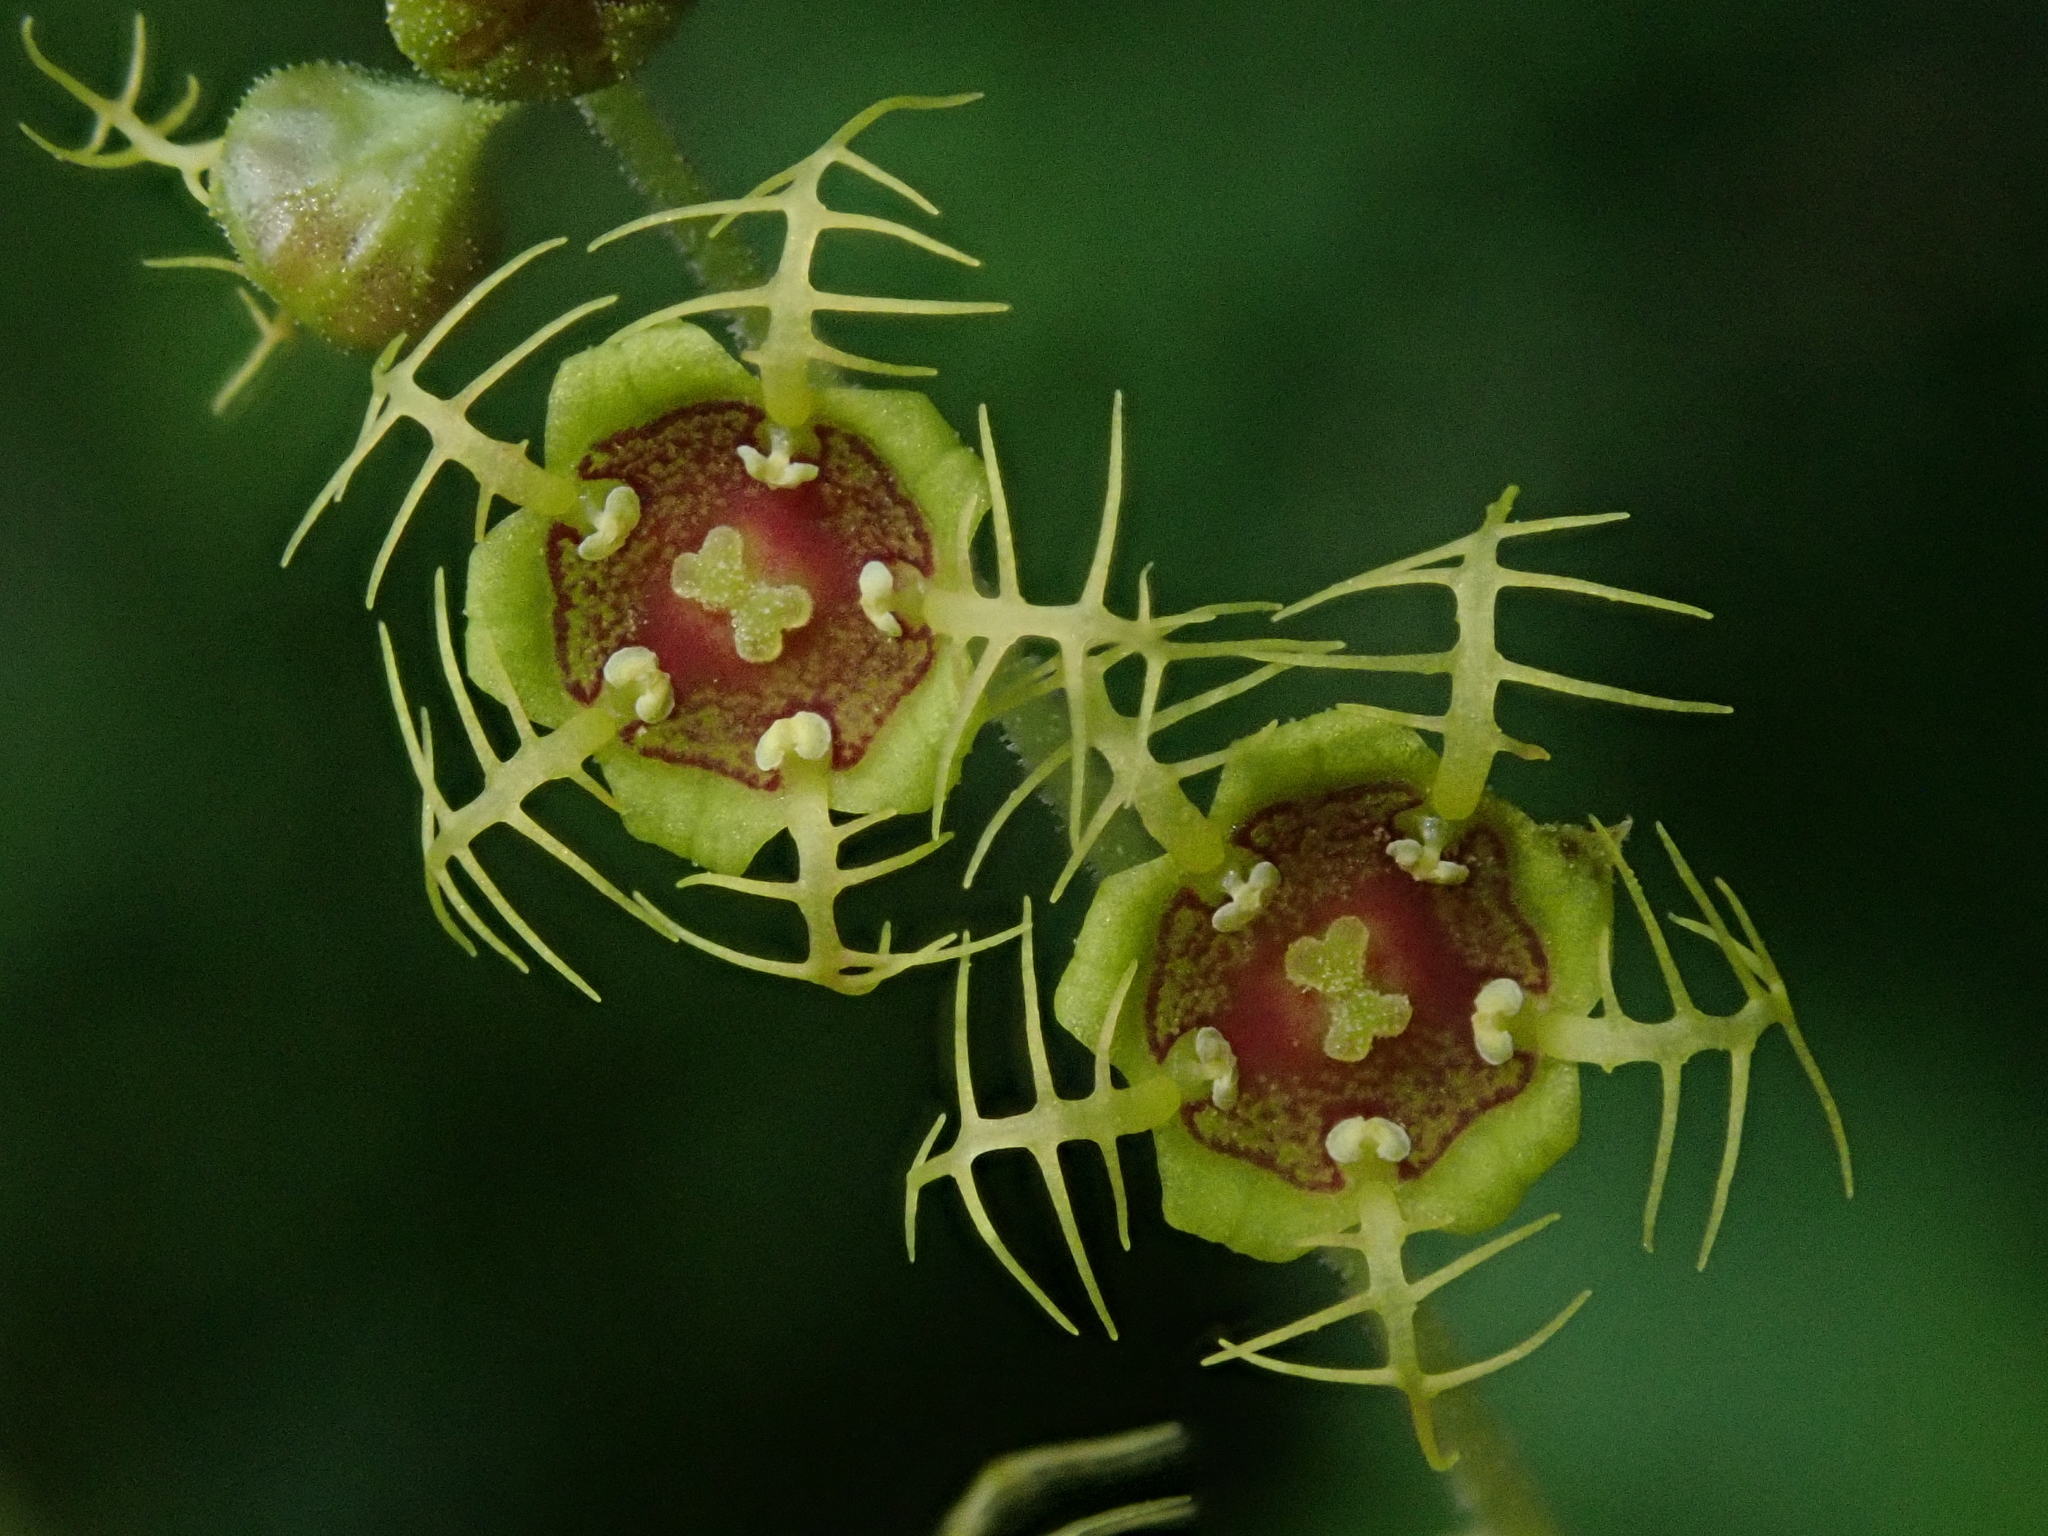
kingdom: Plantae
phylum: Tracheophyta
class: Magnoliopsida
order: Saxifragales
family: Saxifragaceae
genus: Pectiantia
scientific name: Pectiantia pentandra
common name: Alpine bishop's-cap
